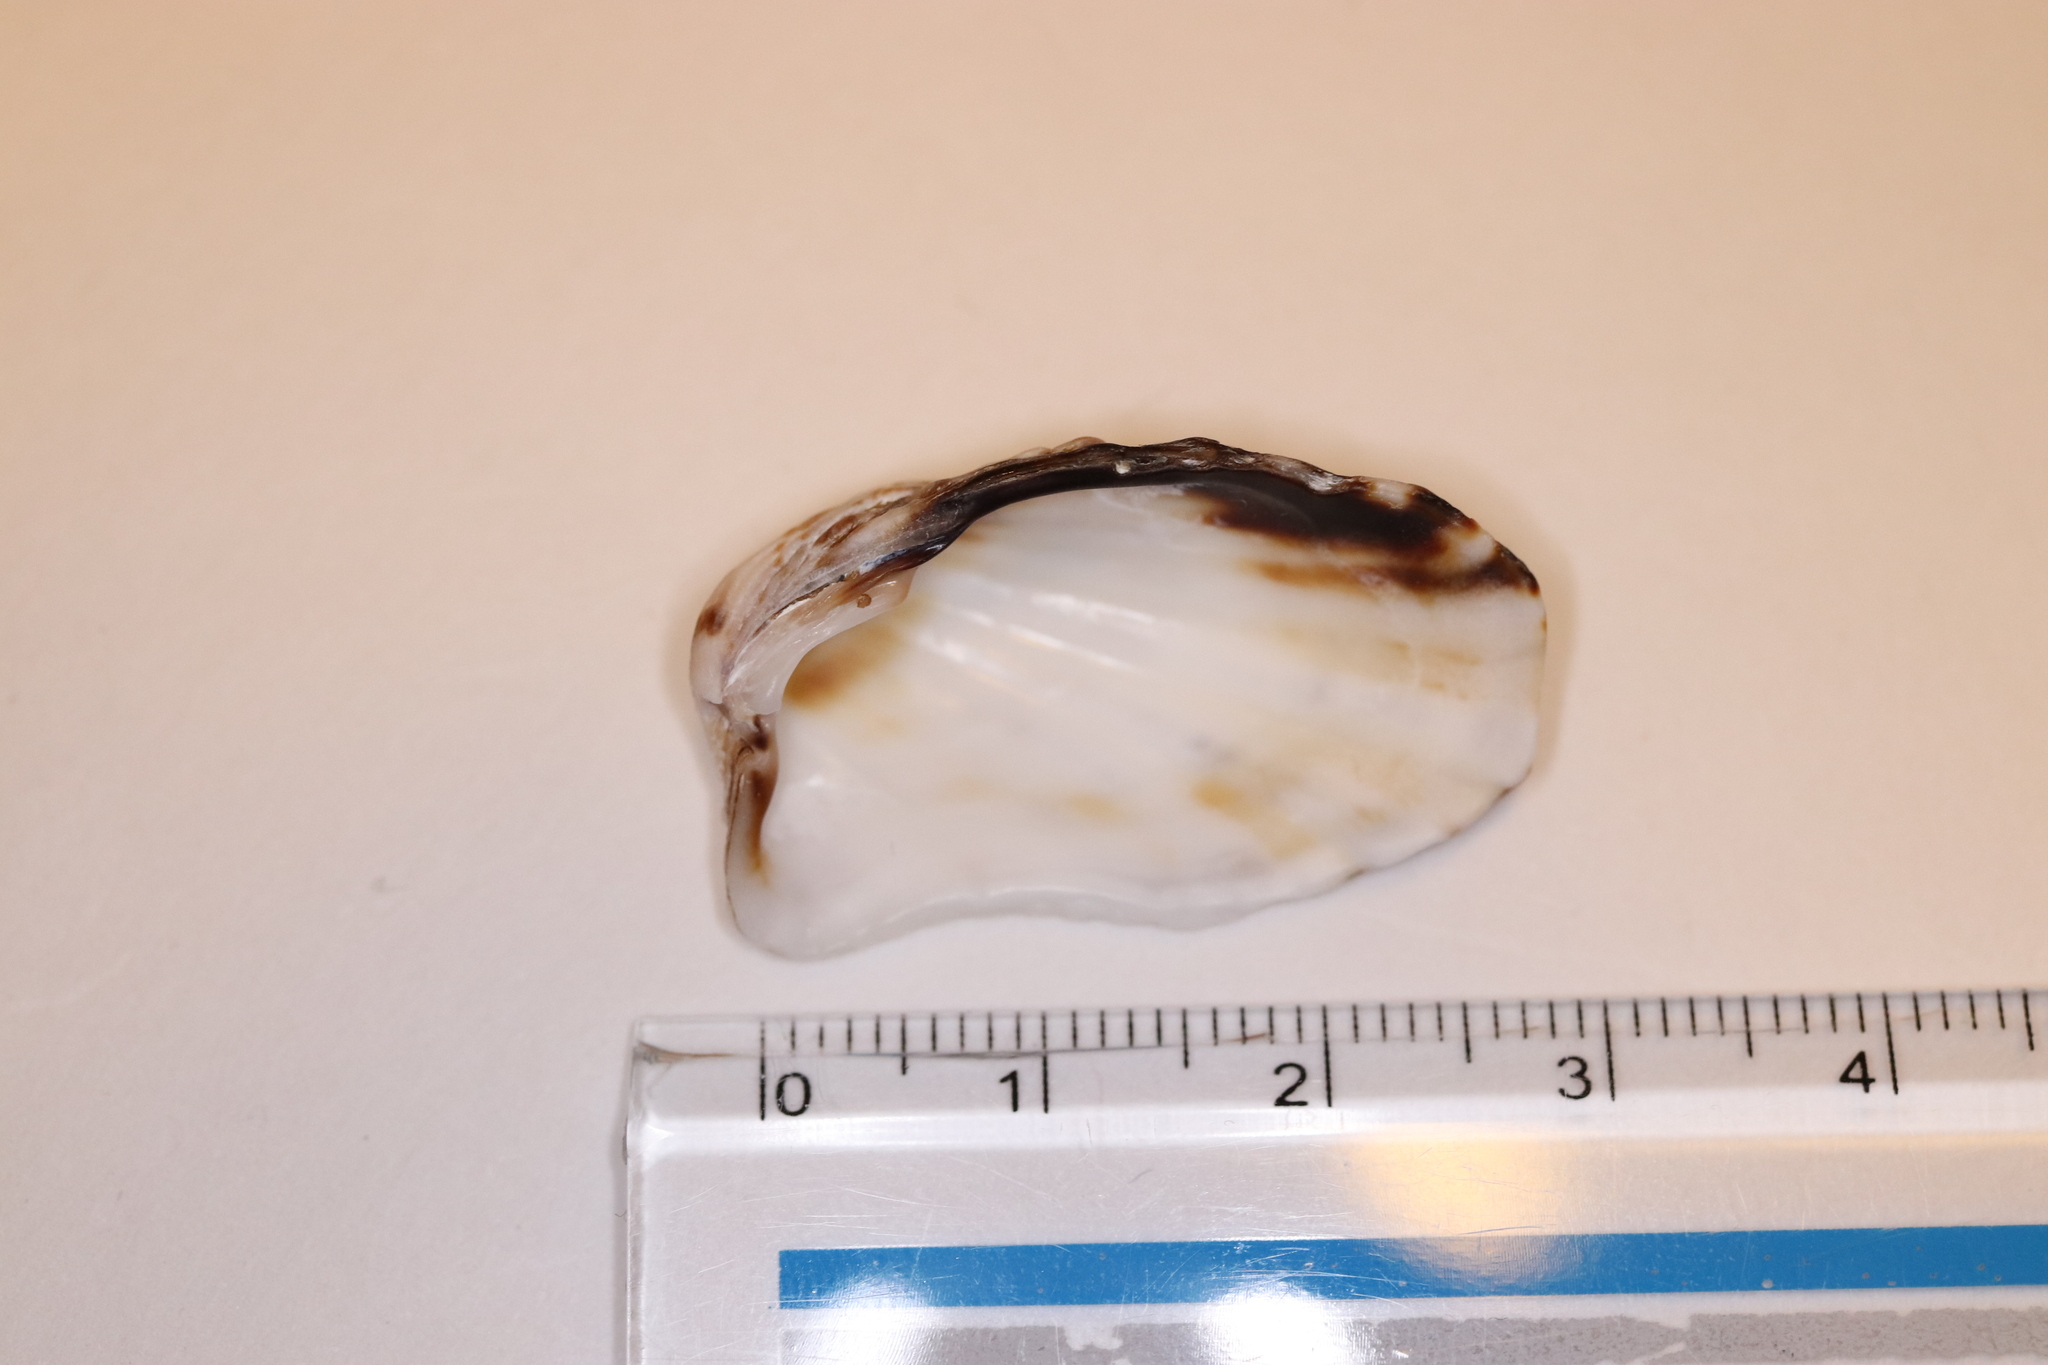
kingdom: Animalia
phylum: Mollusca
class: Bivalvia
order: Carditida
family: Carditidae
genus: Cardita
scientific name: Cardita leana
